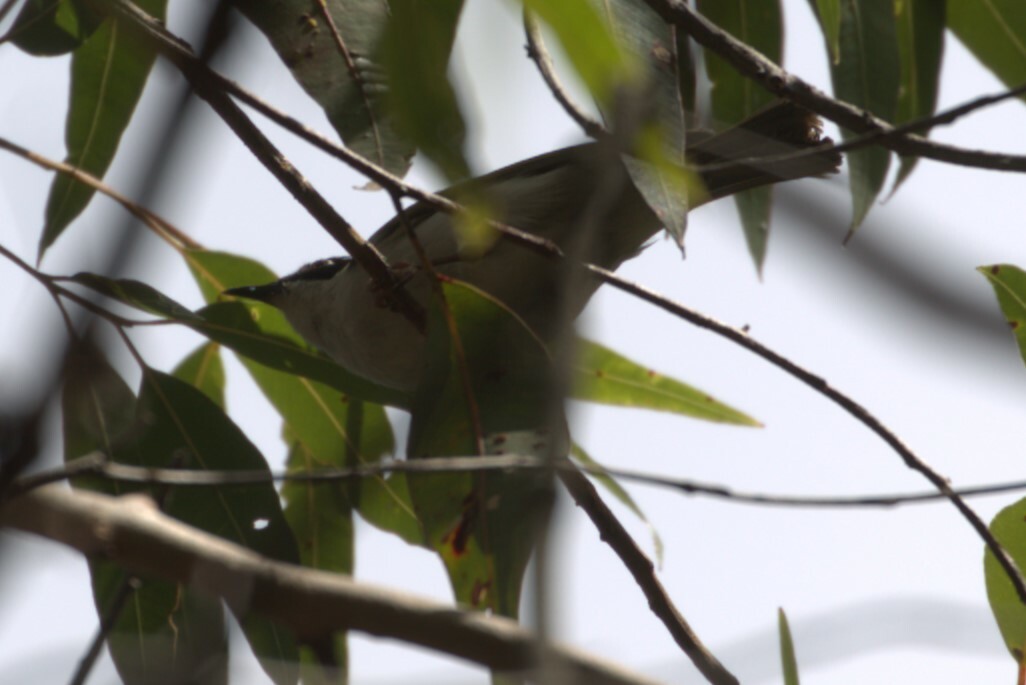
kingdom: Animalia
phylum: Chordata
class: Aves
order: Passeriformes
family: Meliphagidae
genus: Melithreptus
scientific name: Melithreptus albogularis
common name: White-throated honeyeater
